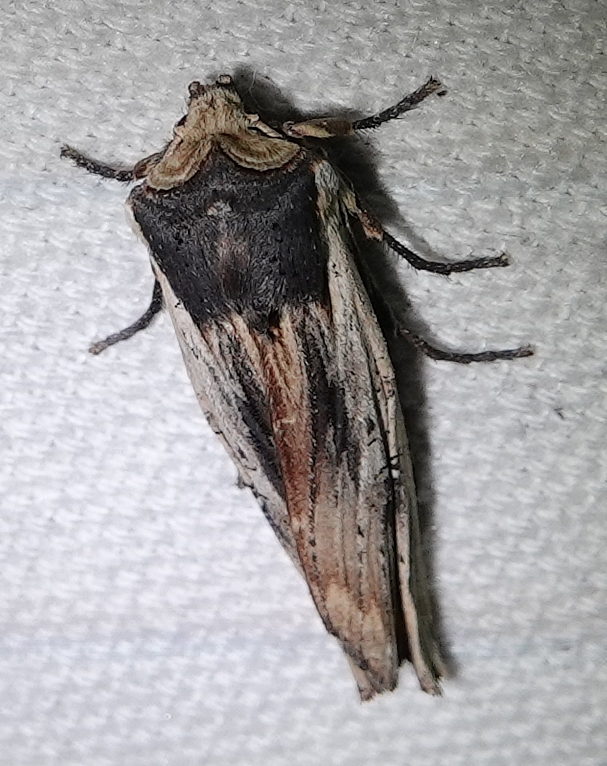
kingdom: Animalia
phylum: Arthropoda
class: Insecta
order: Lepidoptera
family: Noctuidae
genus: Xylena
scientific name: Xylena nupera
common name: American swordgrass moth
